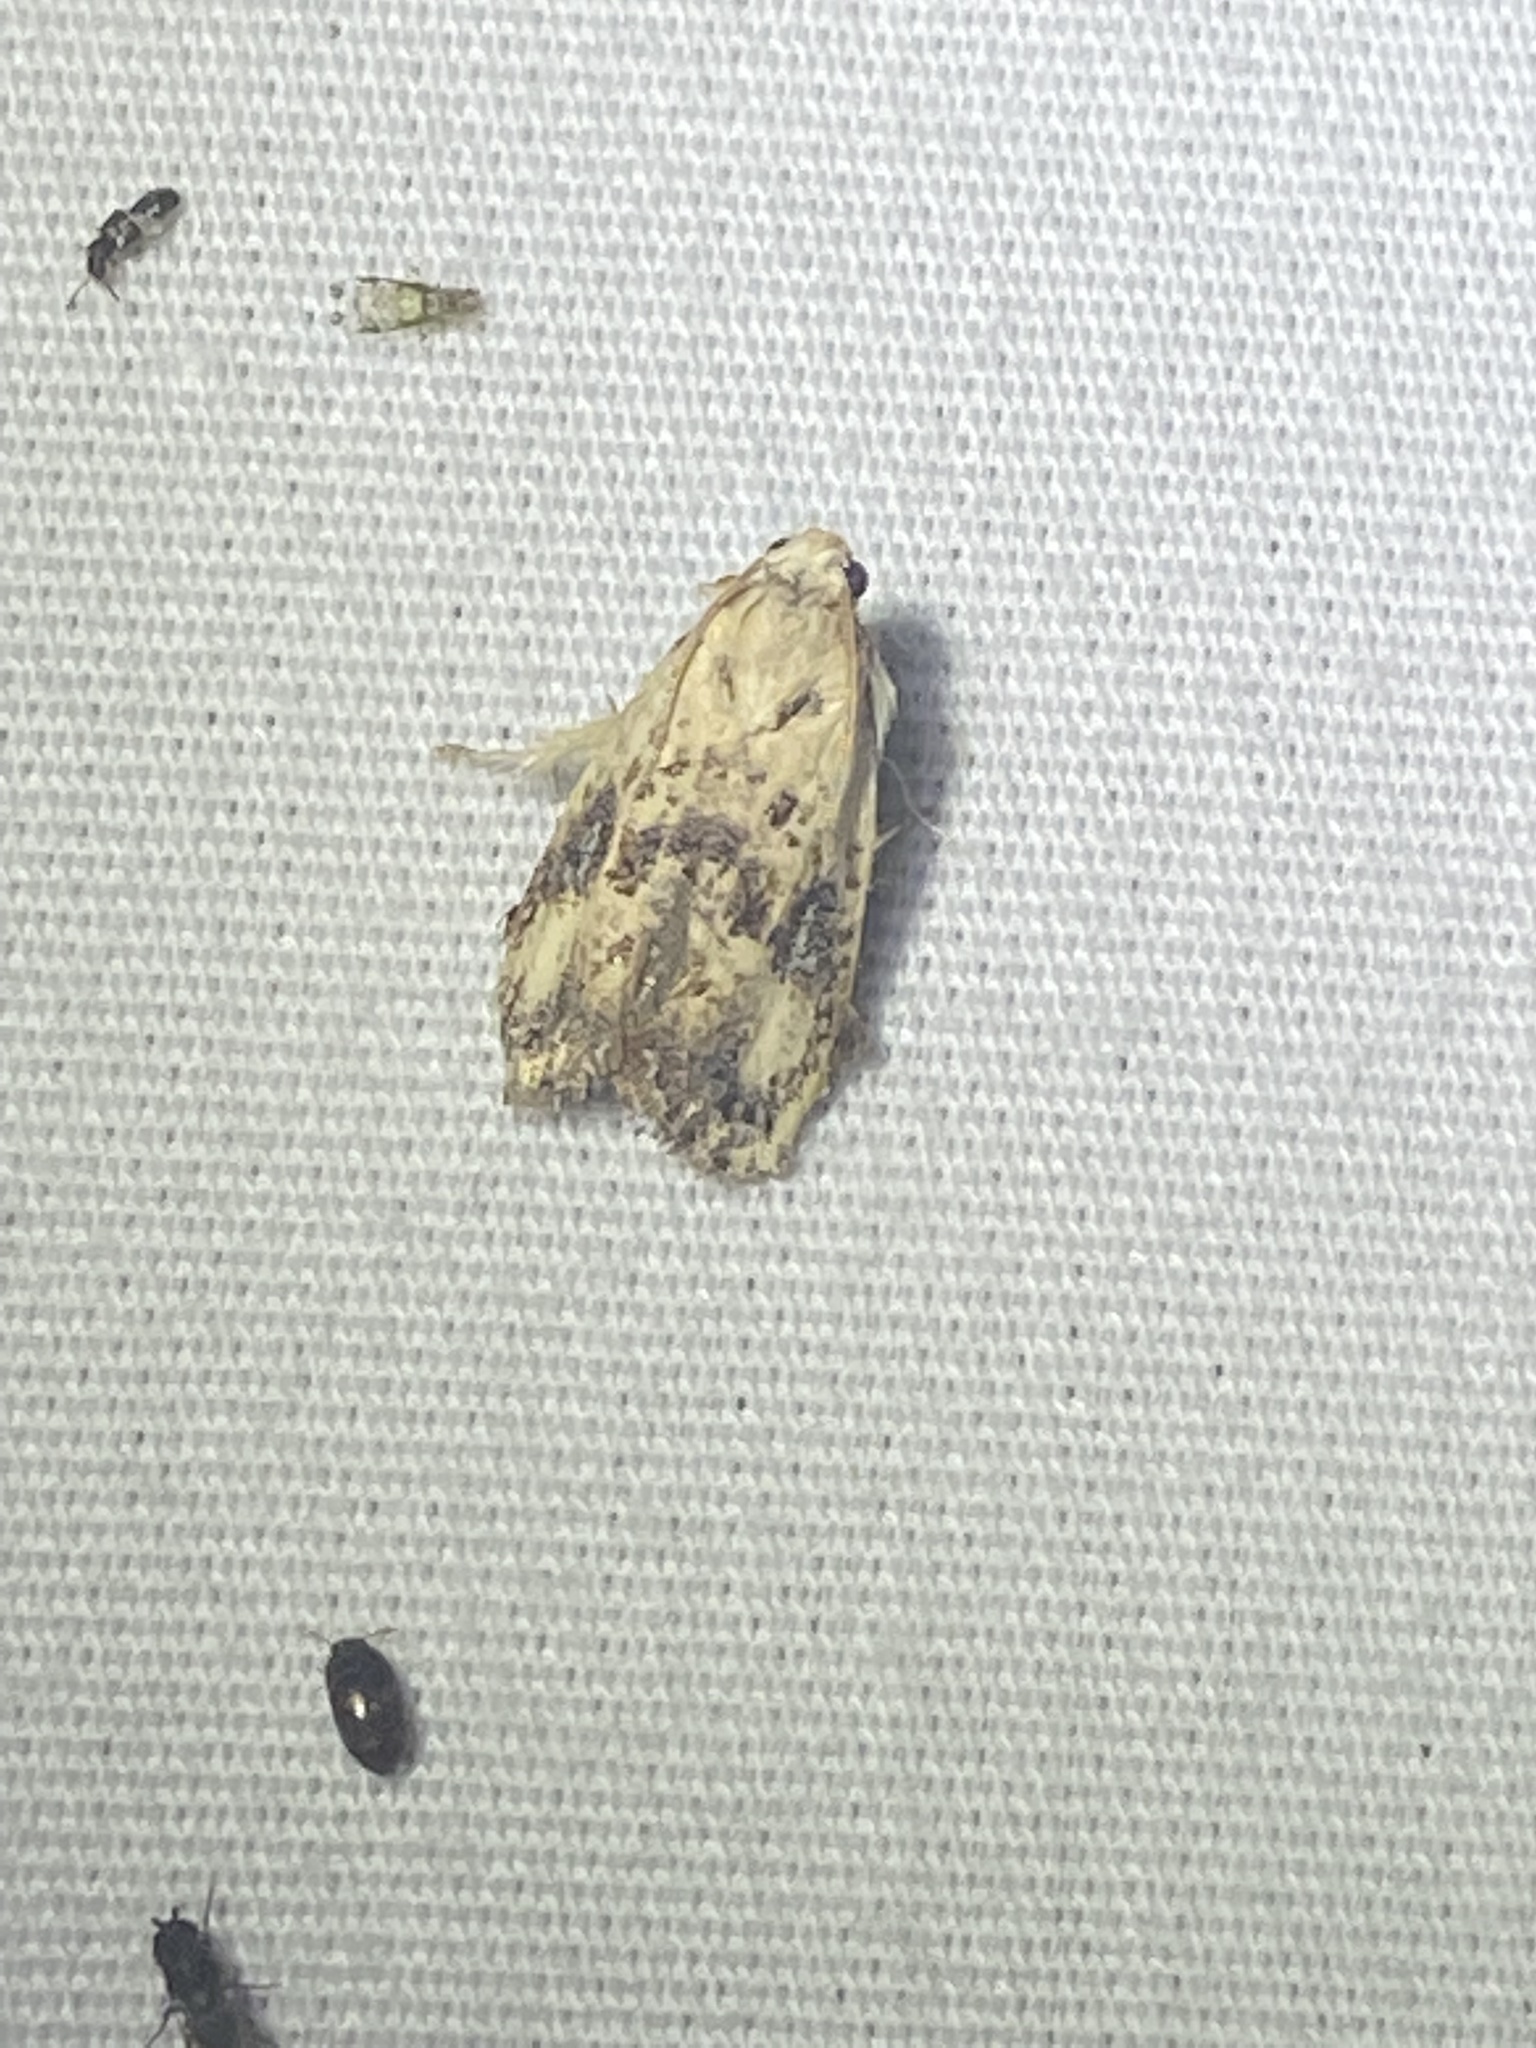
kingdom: Animalia
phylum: Arthropoda
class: Insecta
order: Lepidoptera
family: Tineidae
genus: Acrolophus
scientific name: Acrolophus mycetophagus
